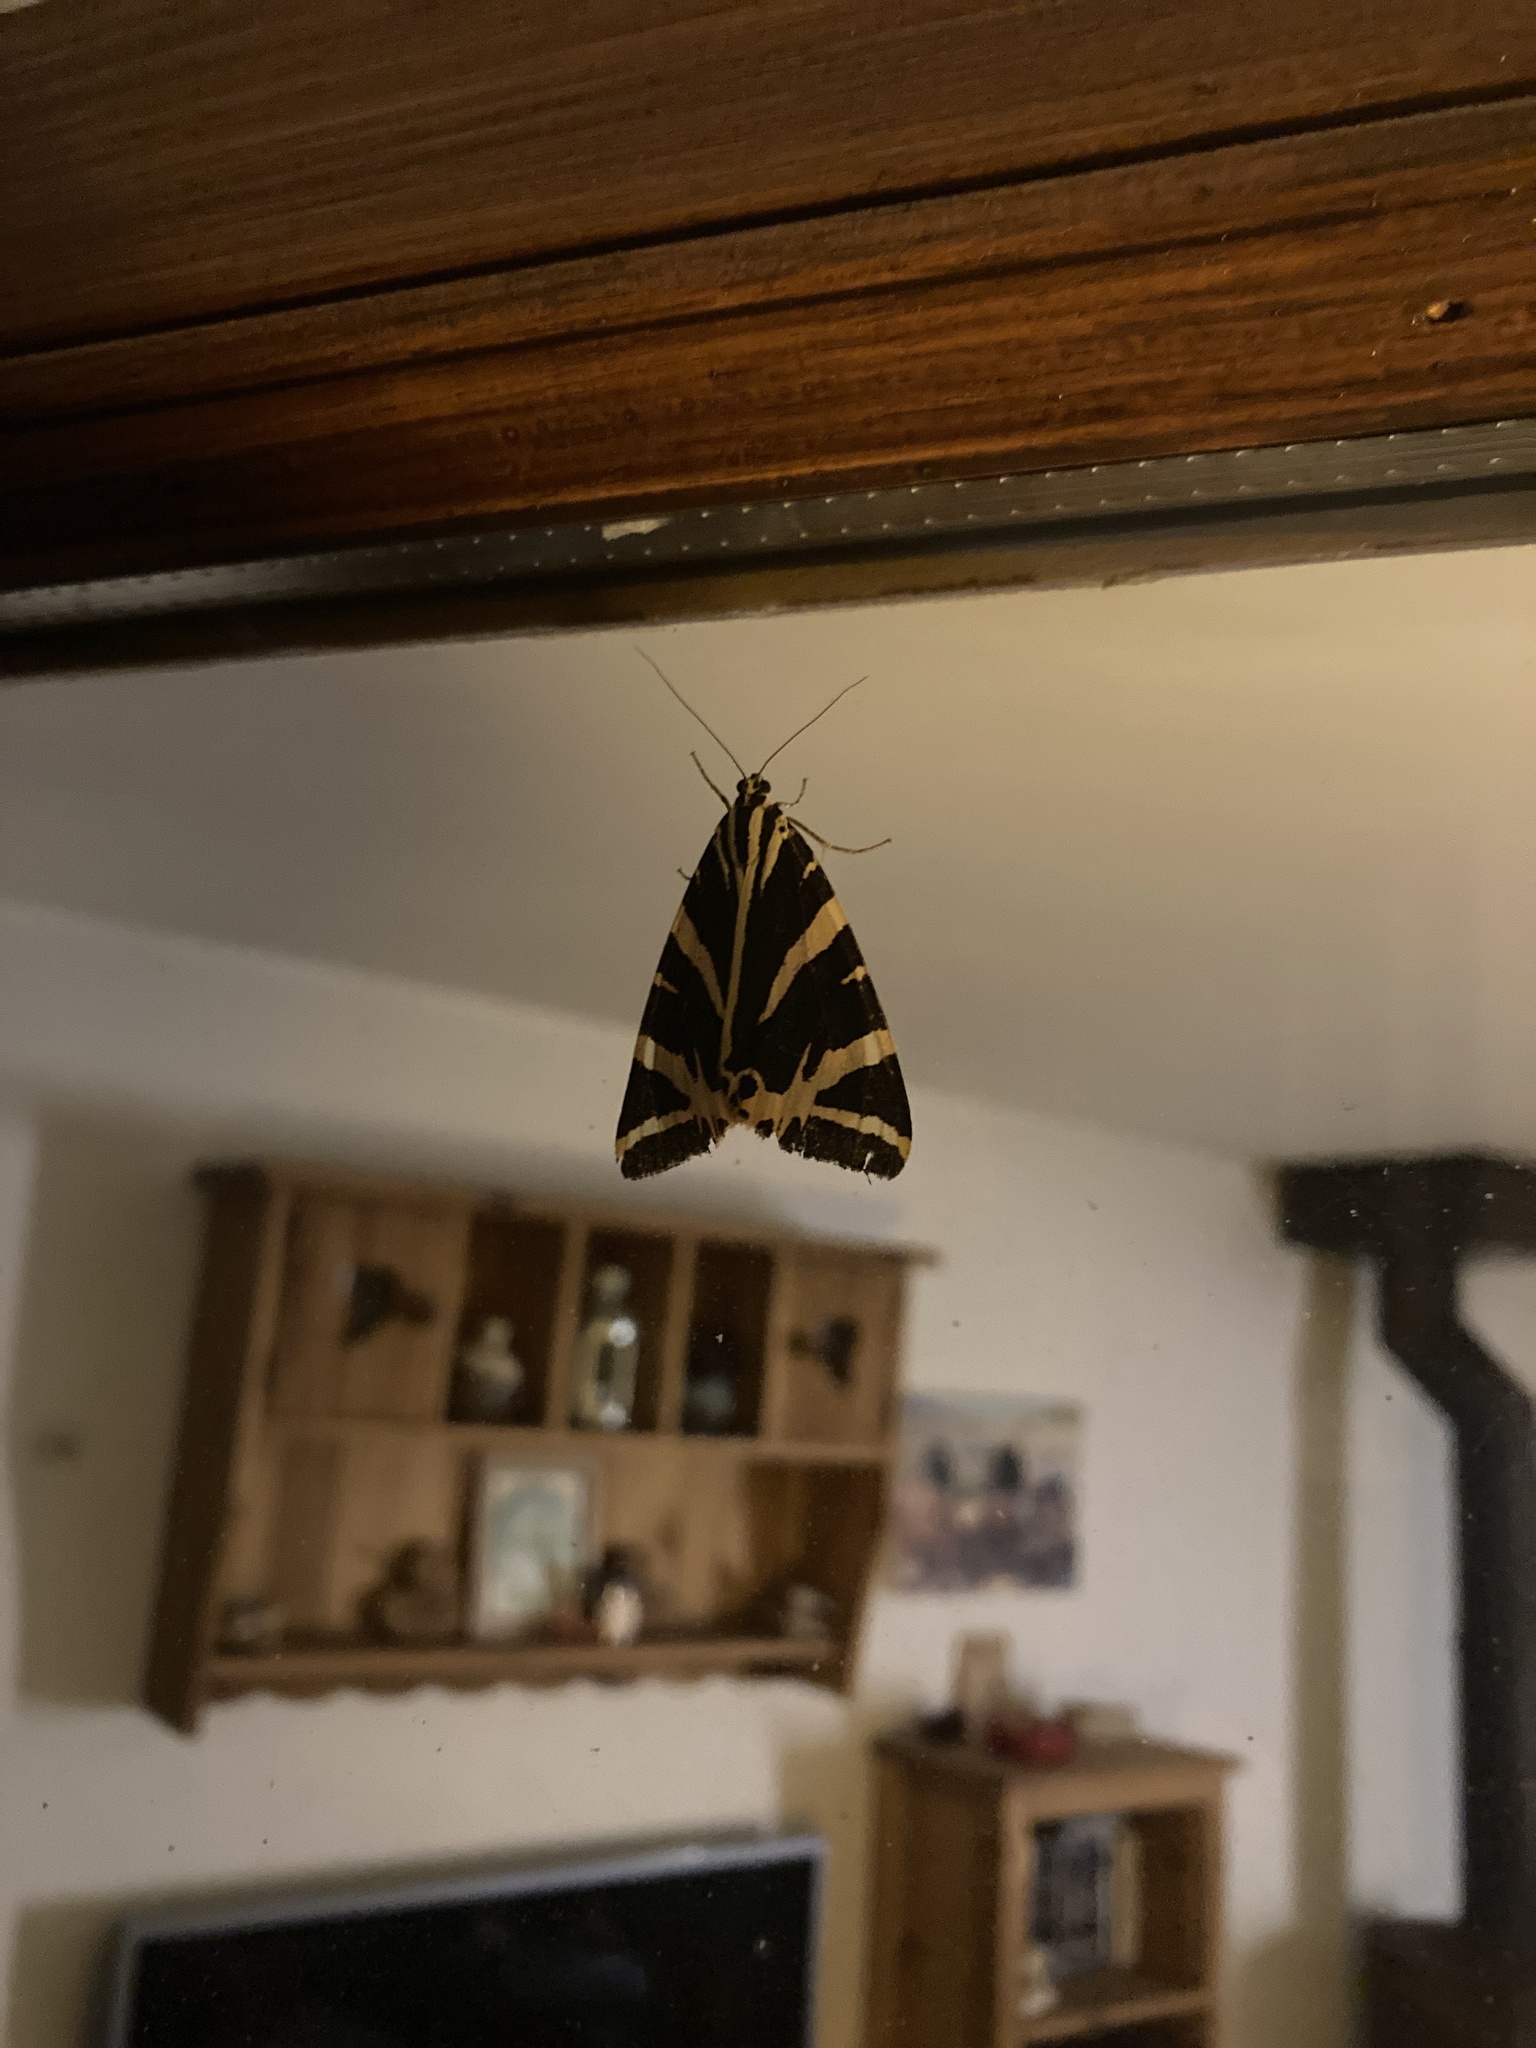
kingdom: Animalia
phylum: Arthropoda
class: Insecta
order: Lepidoptera
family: Erebidae
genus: Euplagia
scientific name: Euplagia quadripunctaria
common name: Jersey tiger
